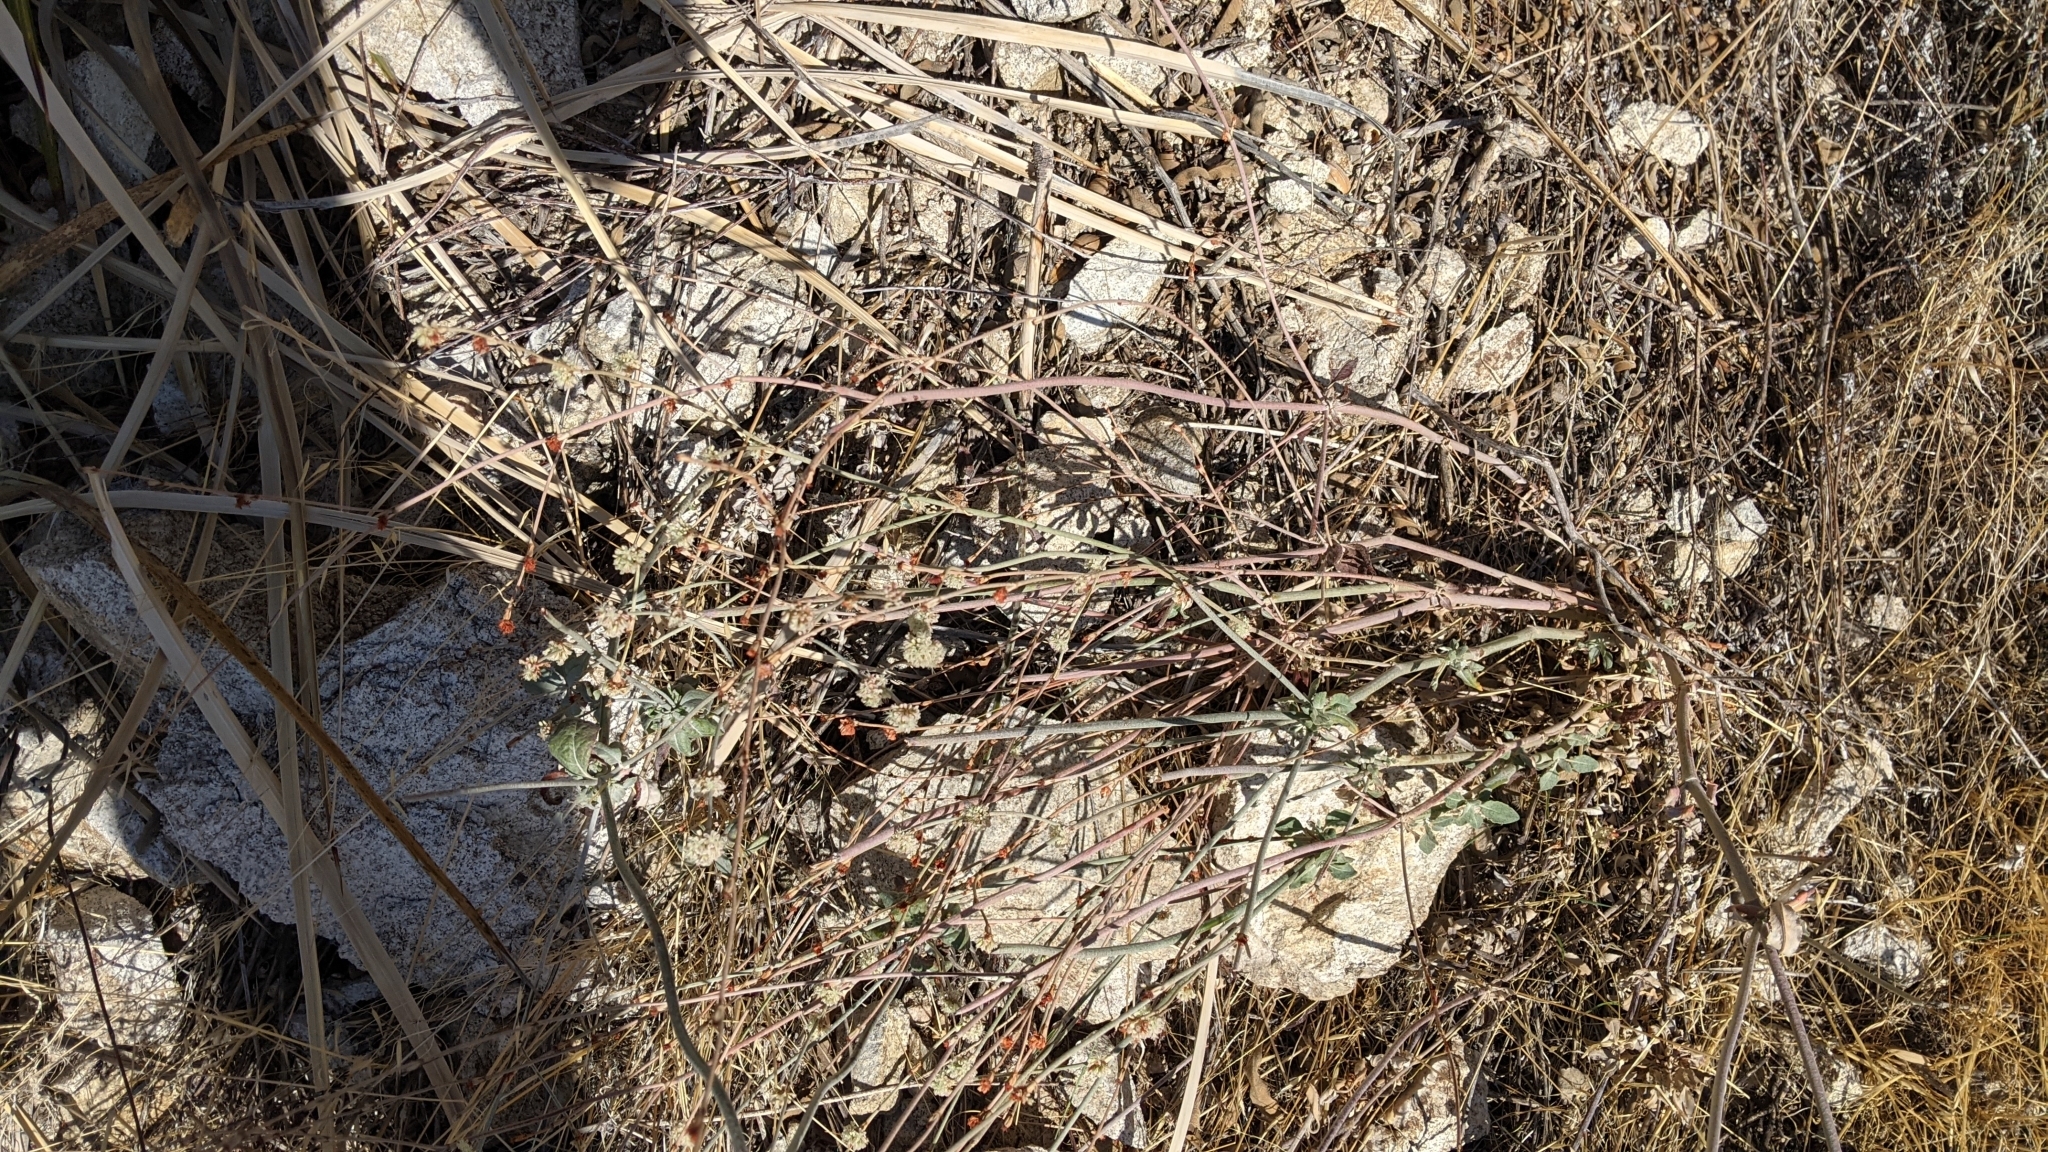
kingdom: Plantae
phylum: Tracheophyta
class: Magnoliopsida
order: Caryophyllales
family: Polygonaceae
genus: Eriogonum
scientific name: Eriogonum elongatum
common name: Long-stem wild buckwheat
